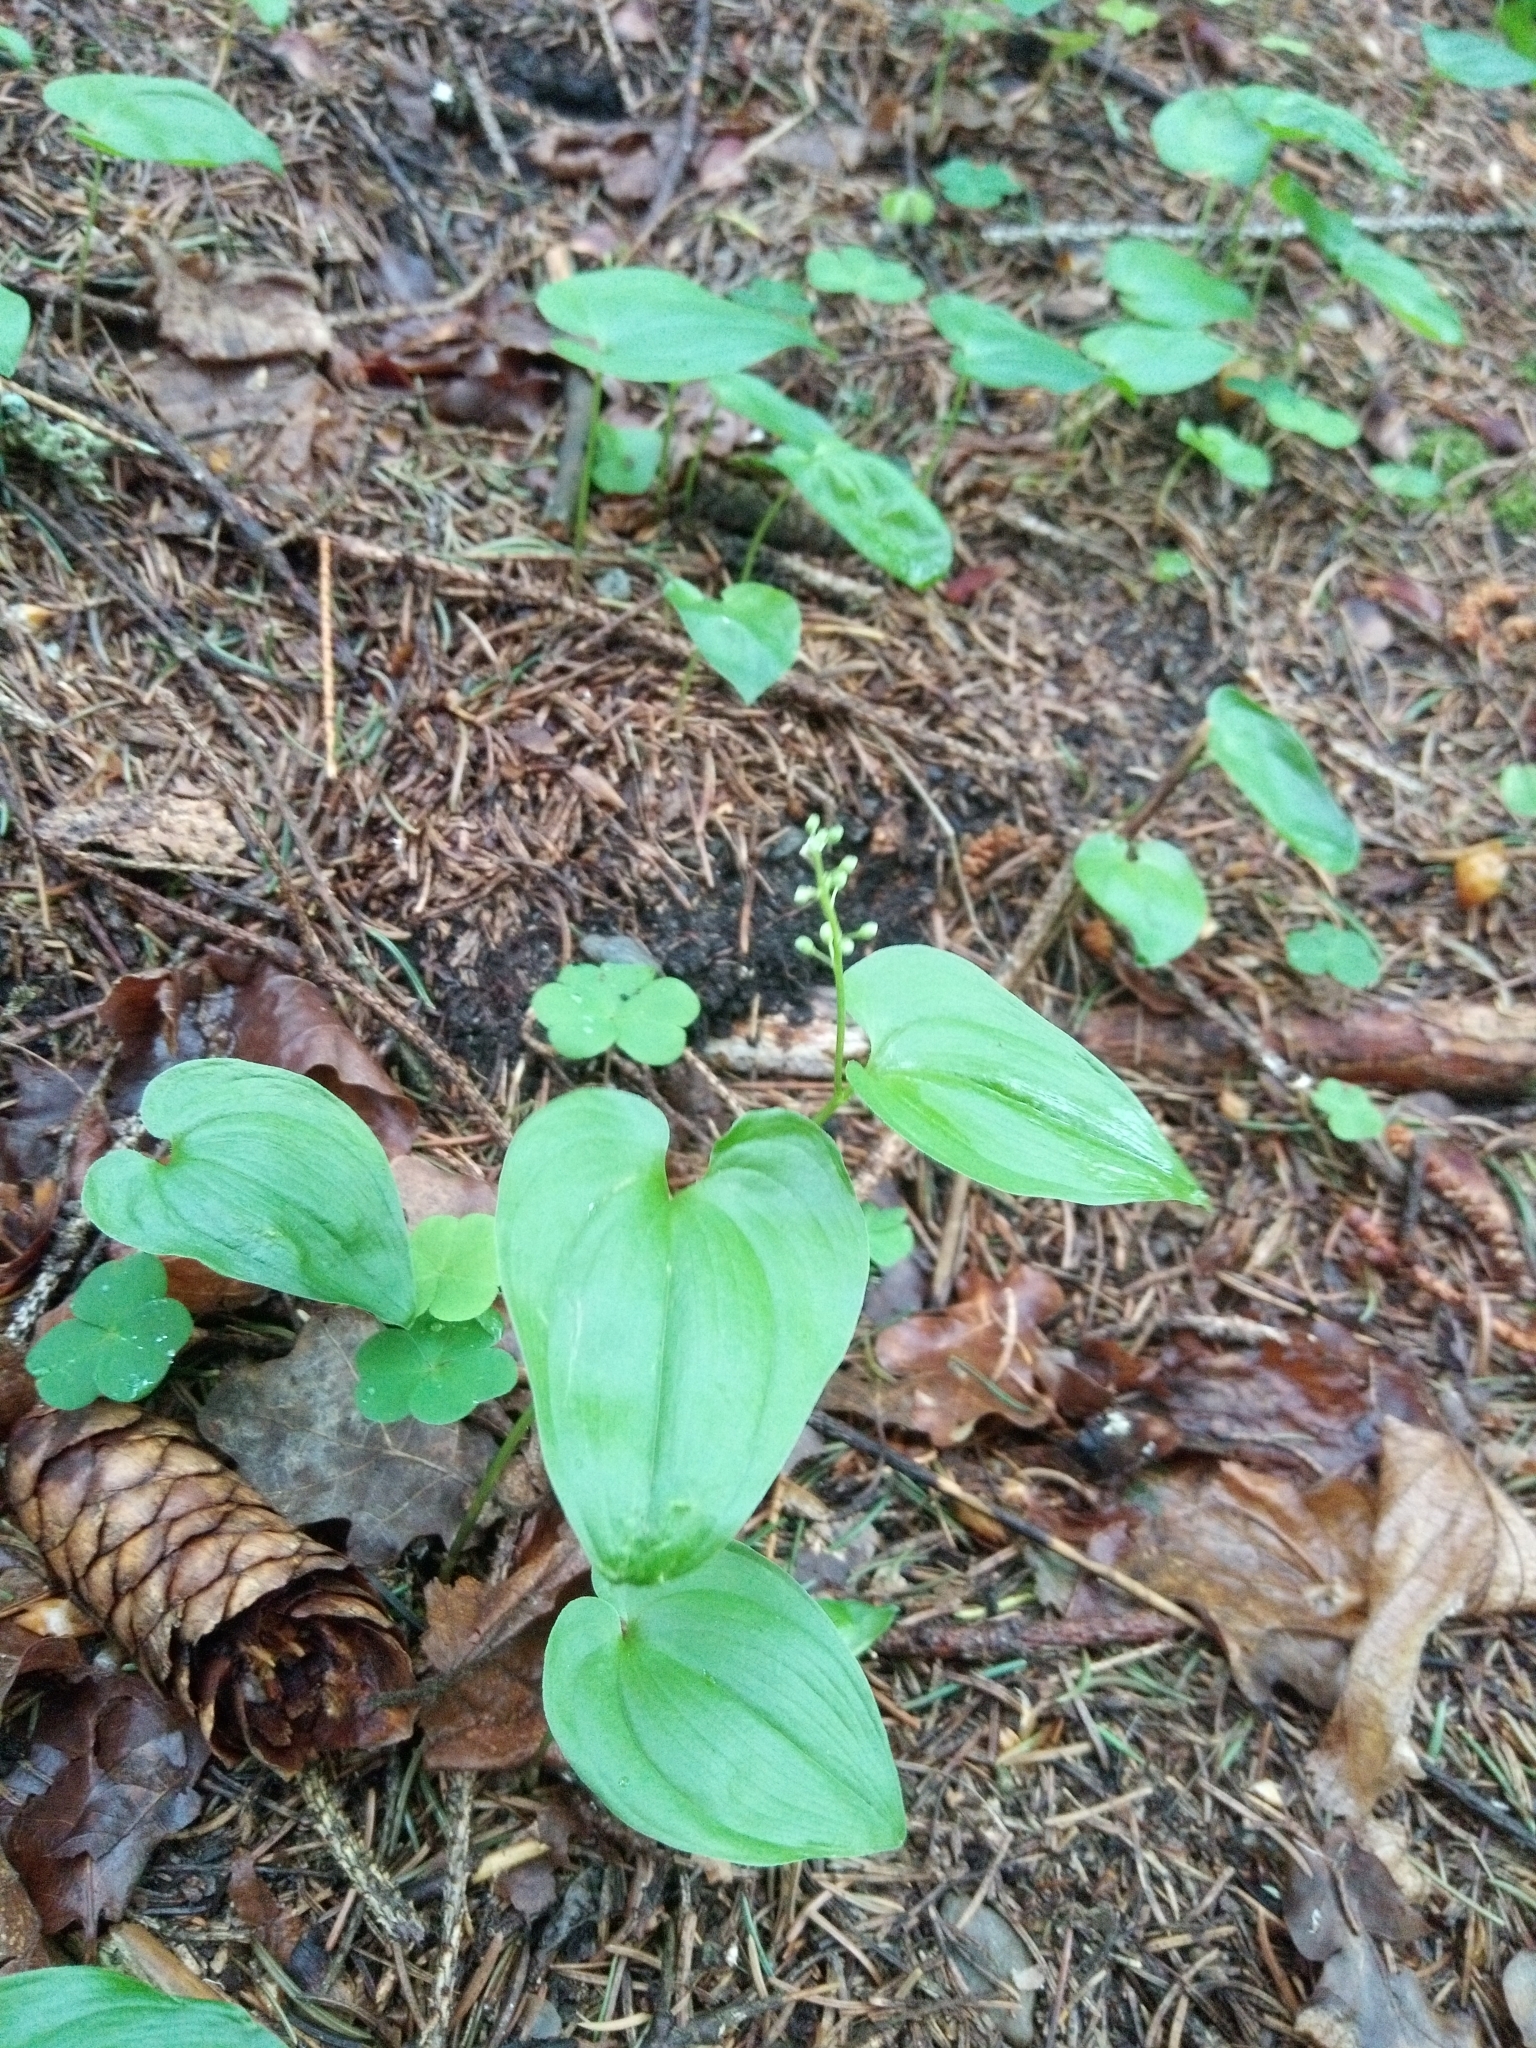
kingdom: Plantae
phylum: Tracheophyta
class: Liliopsida
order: Asparagales
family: Asparagaceae
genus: Maianthemum
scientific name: Maianthemum bifolium
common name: May lily
